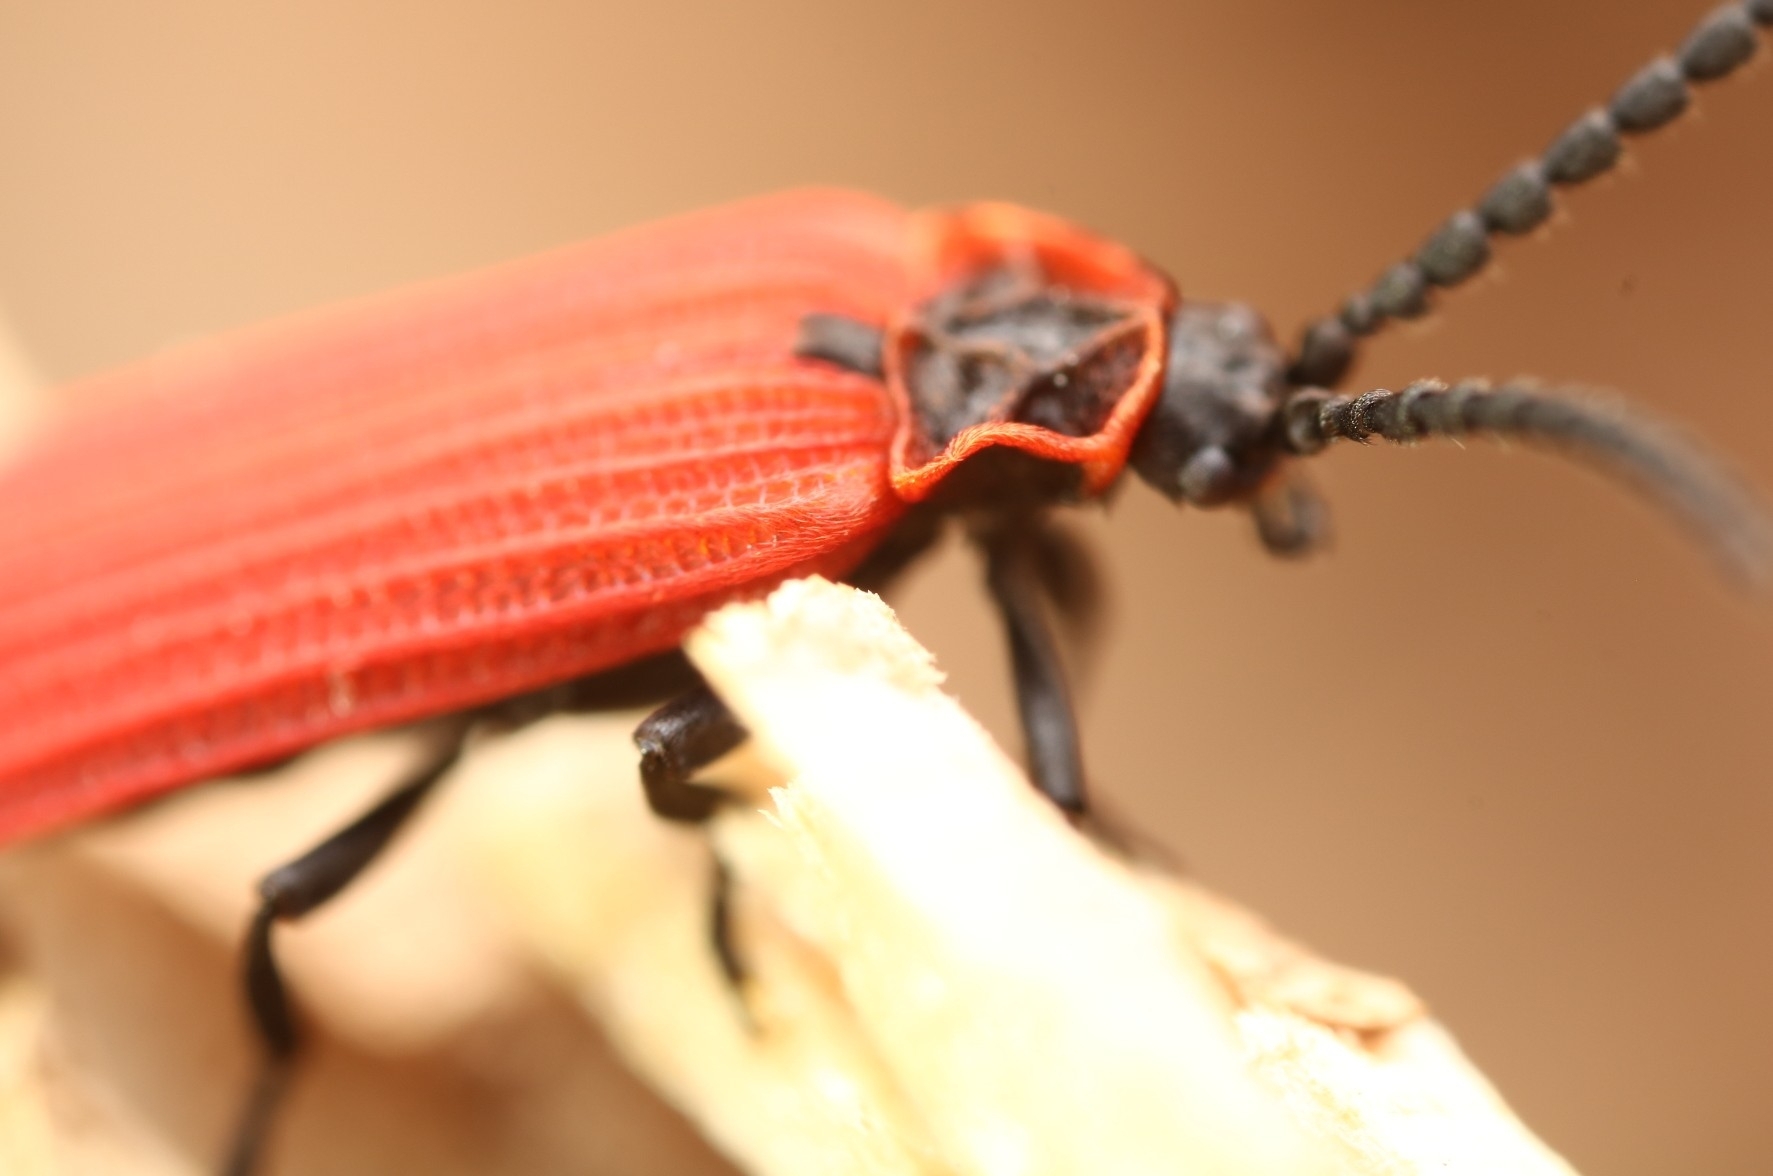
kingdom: Animalia
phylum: Arthropoda
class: Insecta
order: Coleoptera
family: Lycidae
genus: Dictyoptera
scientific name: Dictyoptera aurora
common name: Golden net-winged beetle
